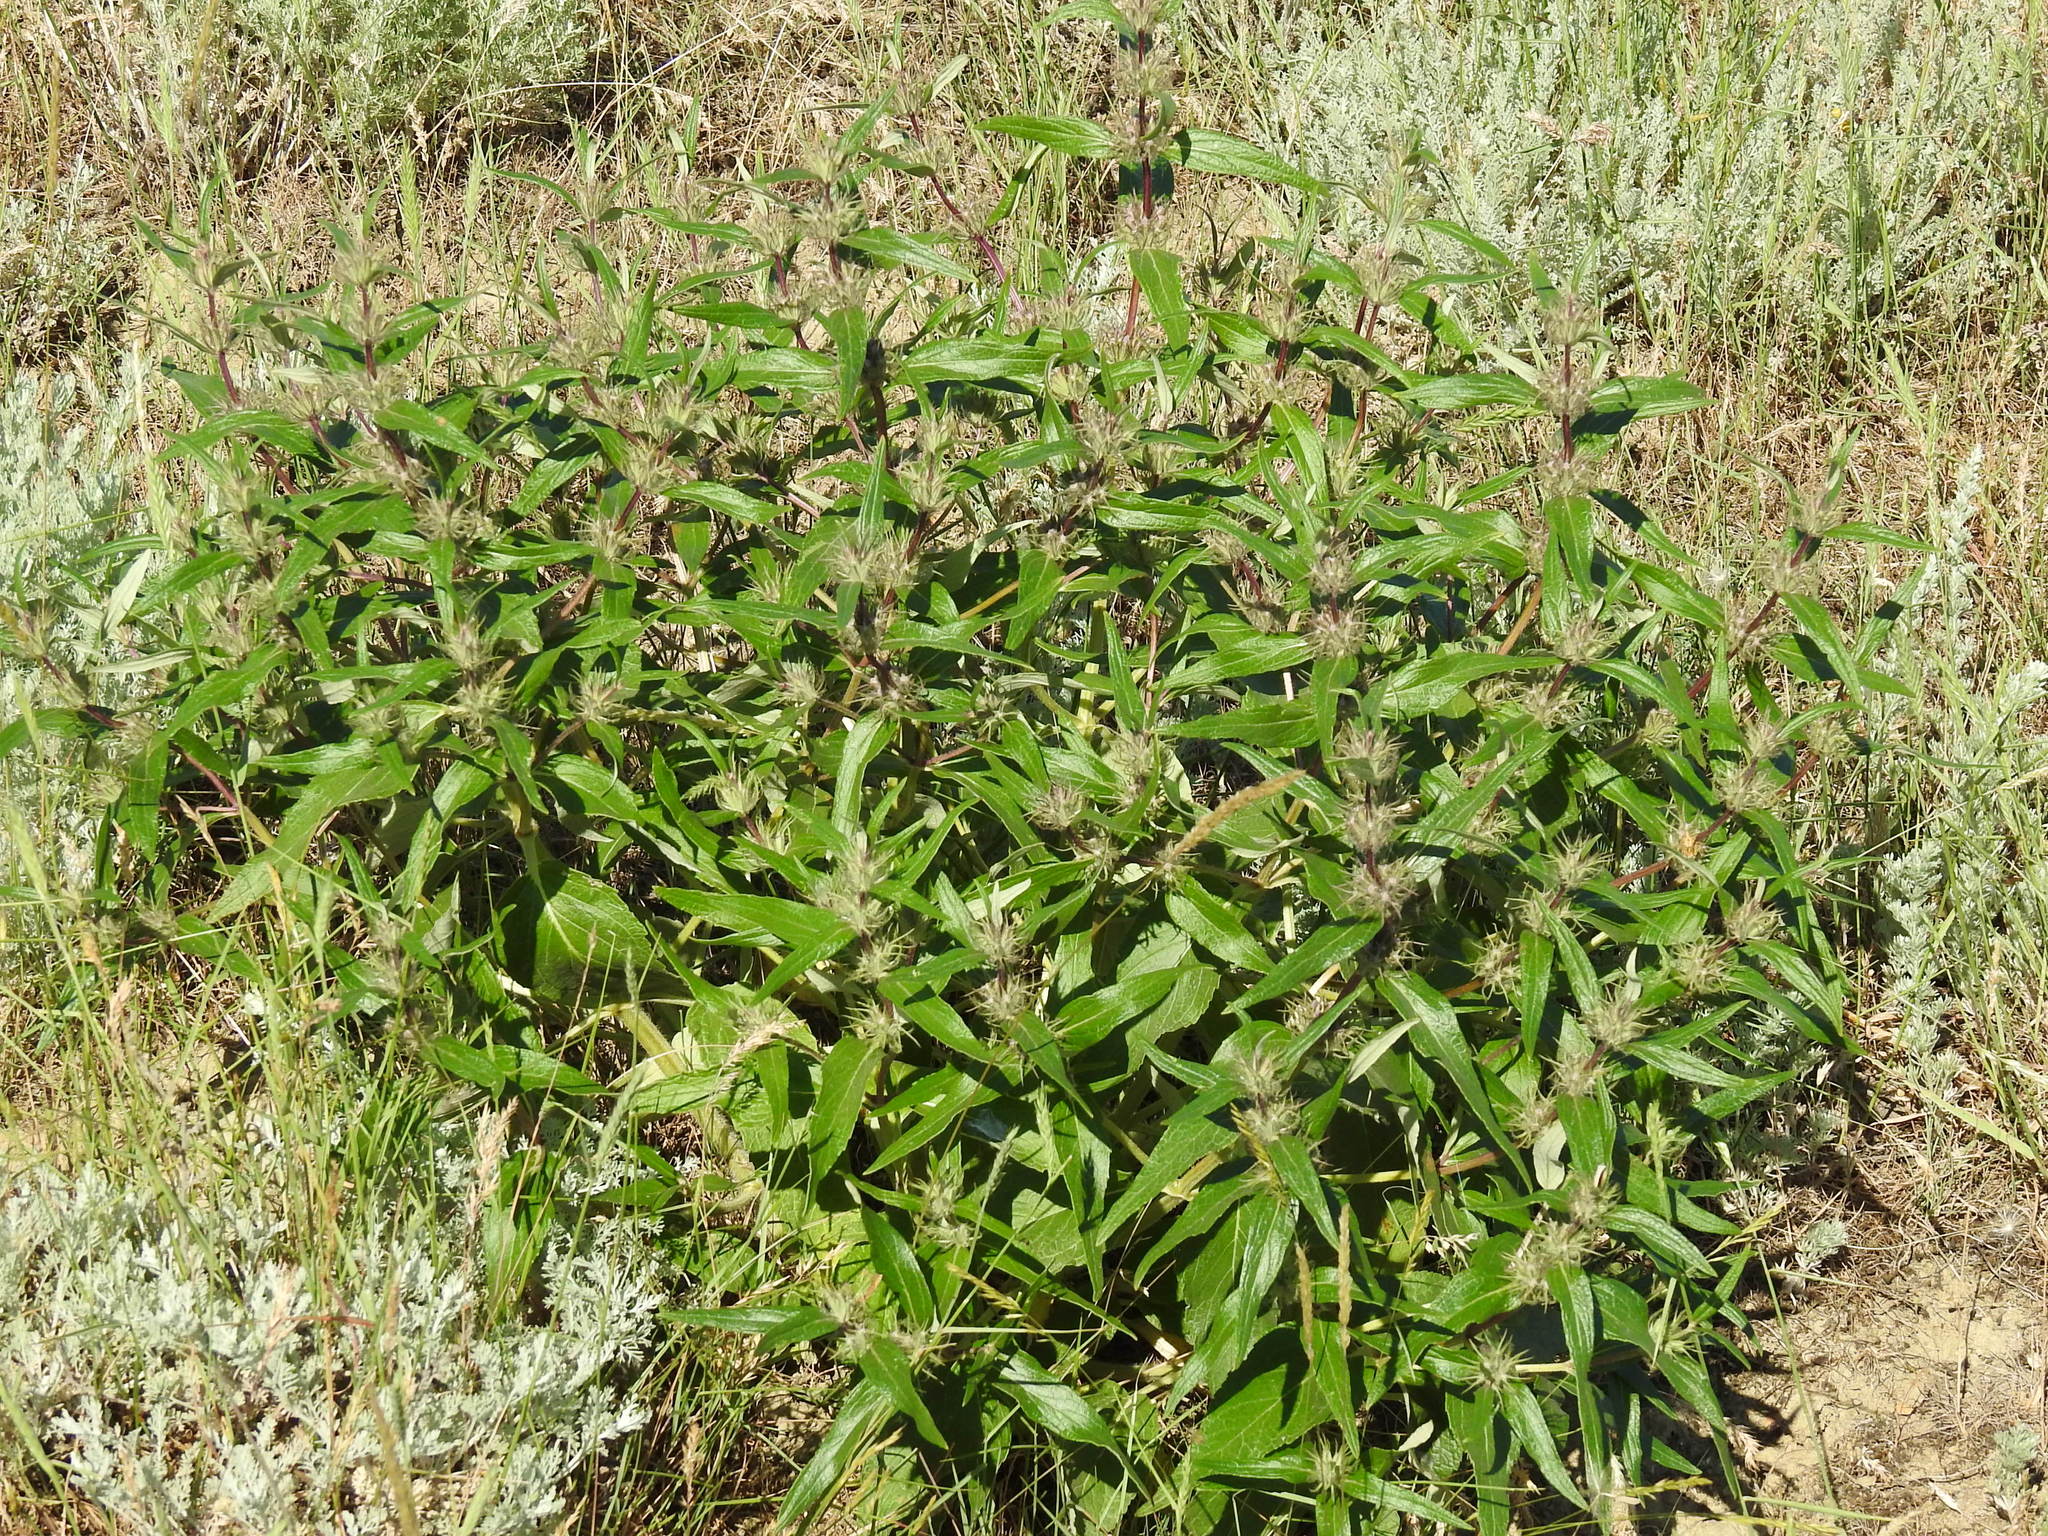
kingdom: Plantae
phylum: Tracheophyta
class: Magnoliopsida
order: Lamiales
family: Lamiaceae
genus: Phlomis
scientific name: Phlomis herba-venti
